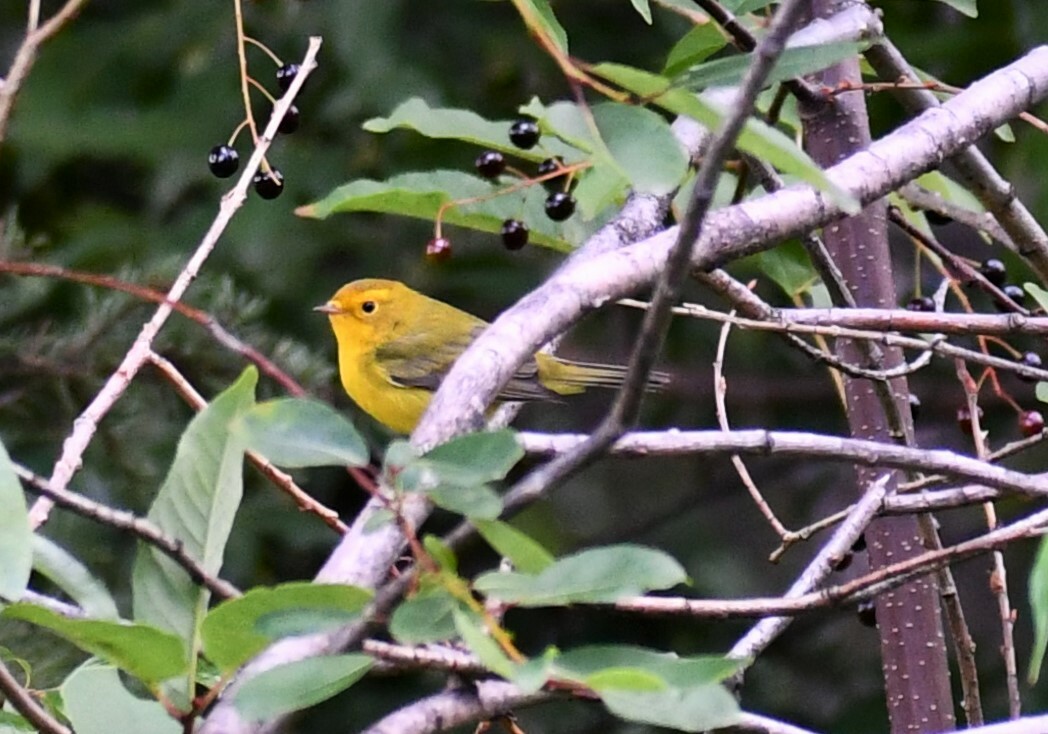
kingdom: Animalia
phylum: Chordata
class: Aves
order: Passeriformes
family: Parulidae
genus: Cardellina
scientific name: Cardellina pusilla
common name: Wilson's warbler
